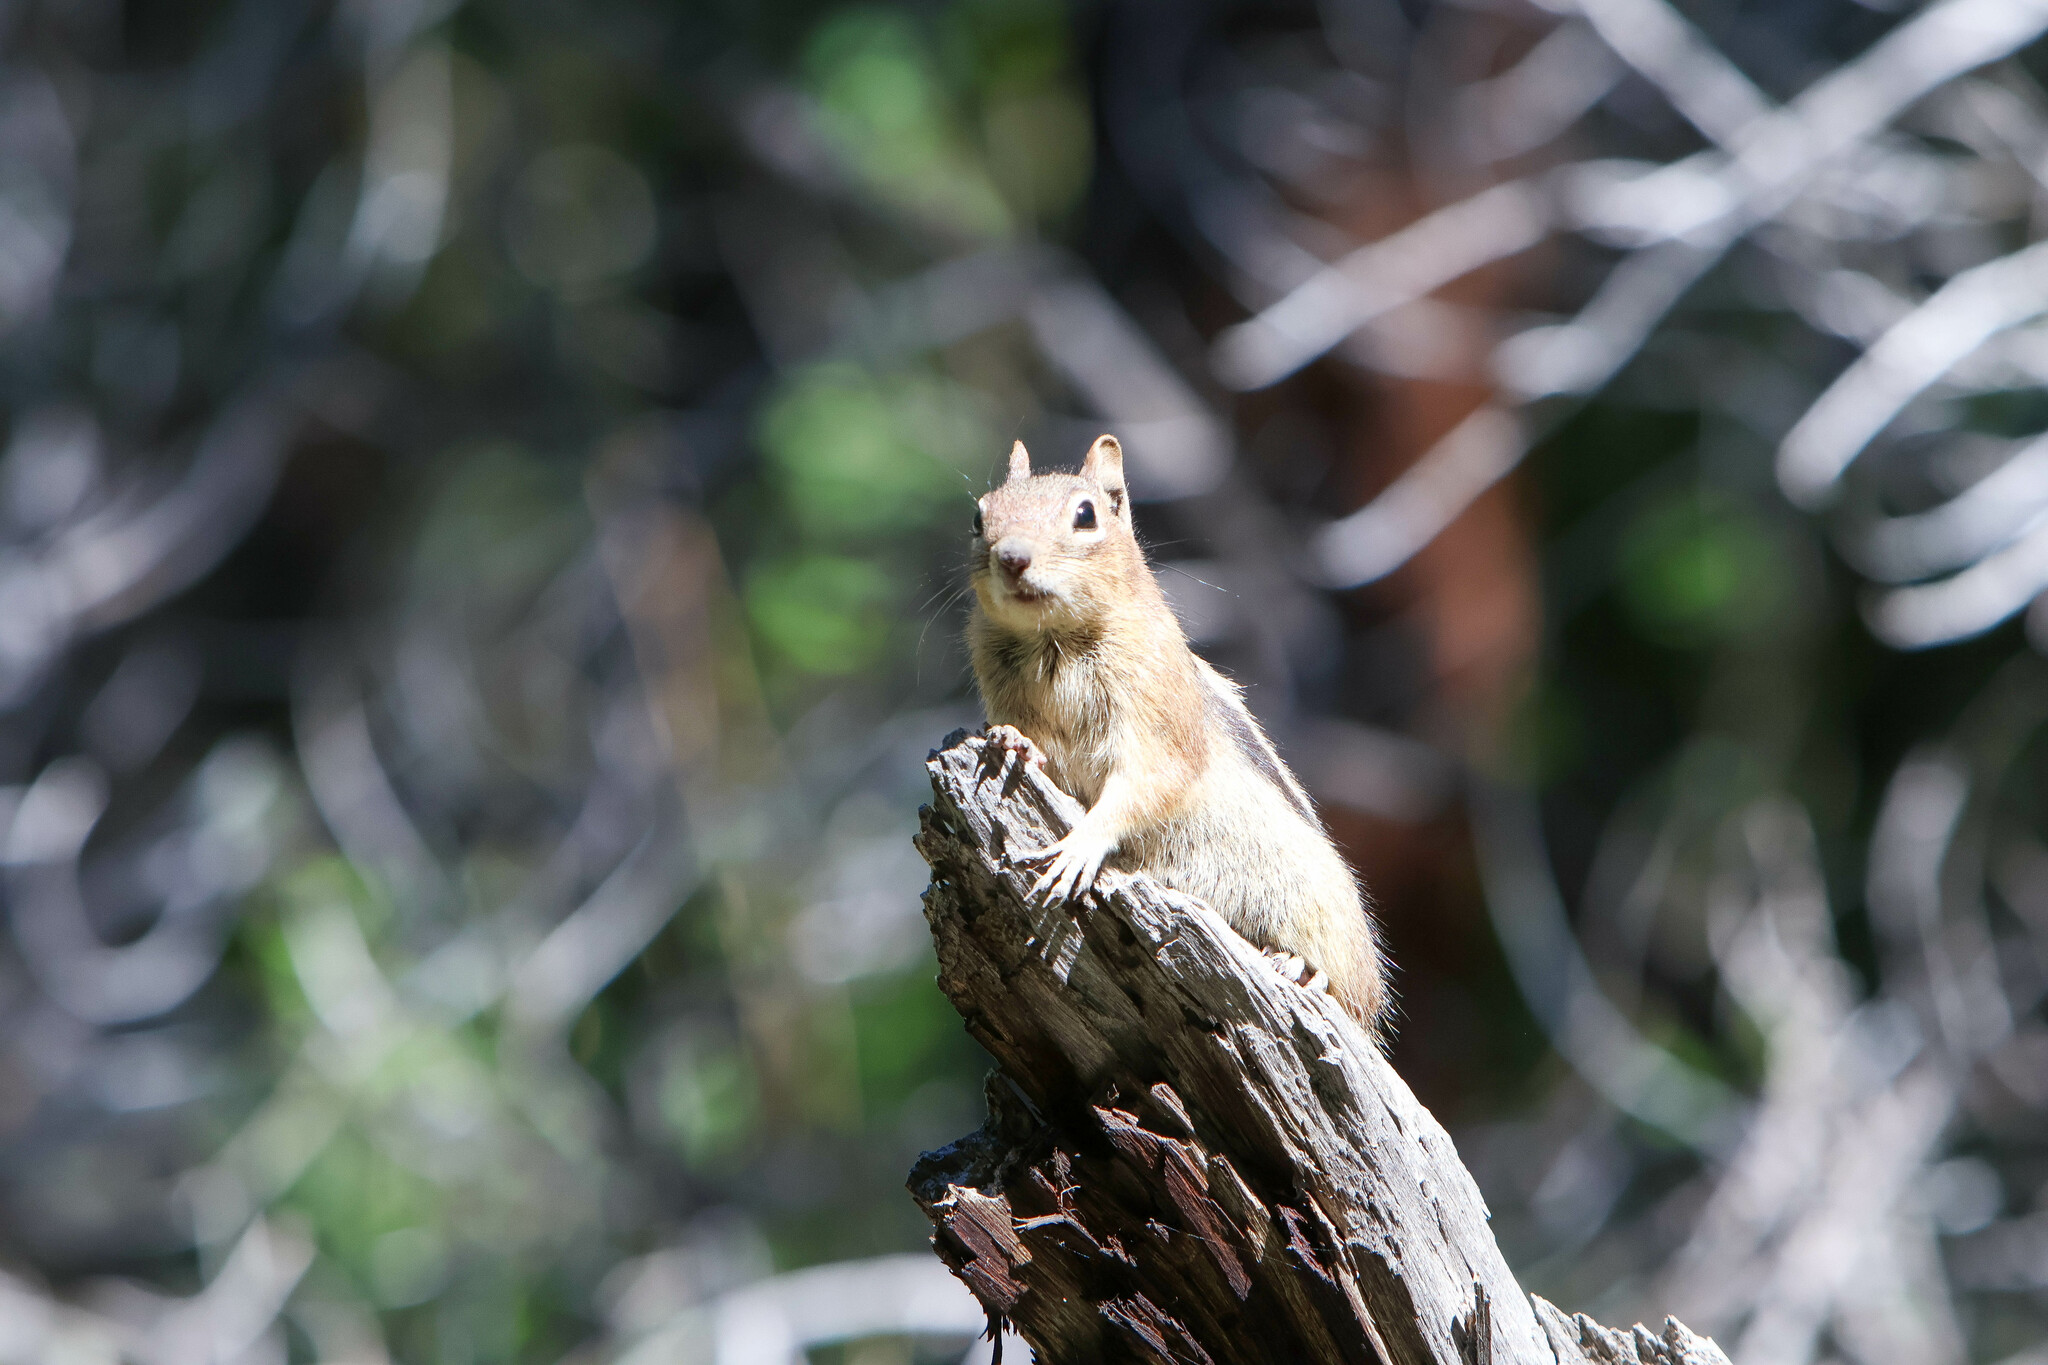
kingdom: Animalia
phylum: Chordata
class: Mammalia
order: Rodentia
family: Sciuridae
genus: Callospermophilus
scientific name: Callospermophilus lateralis
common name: Golden-mantled ground squirrel
